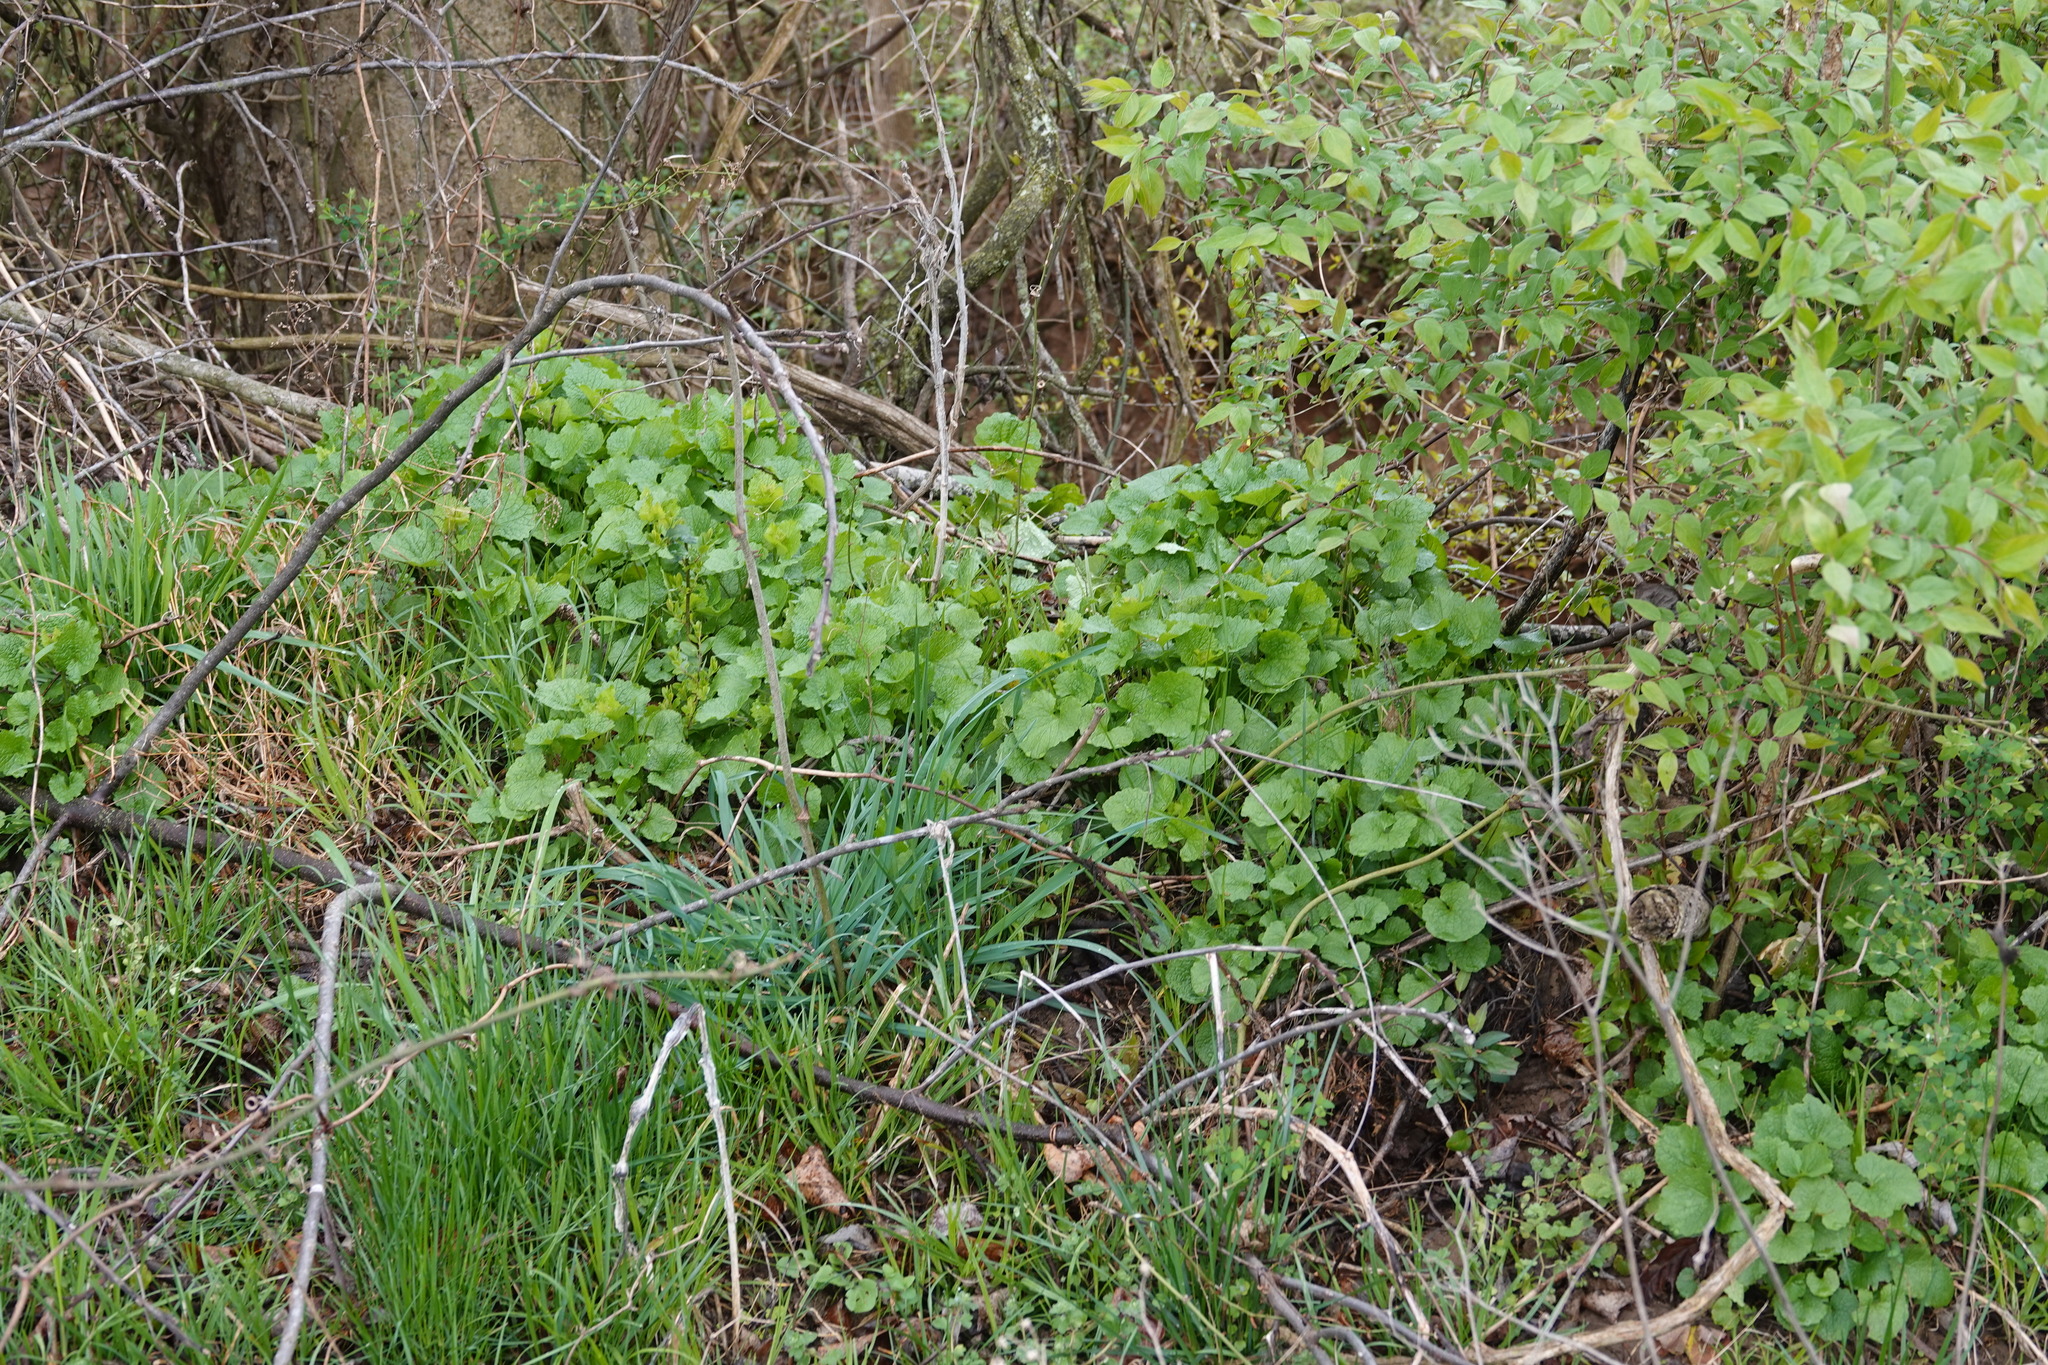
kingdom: Plantae
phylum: Tracheophyta
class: Magnoliopsida
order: Brassicales
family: Brassicaceae
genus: Alliaria
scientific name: Alliaria petiolata
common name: Garlic mustard
